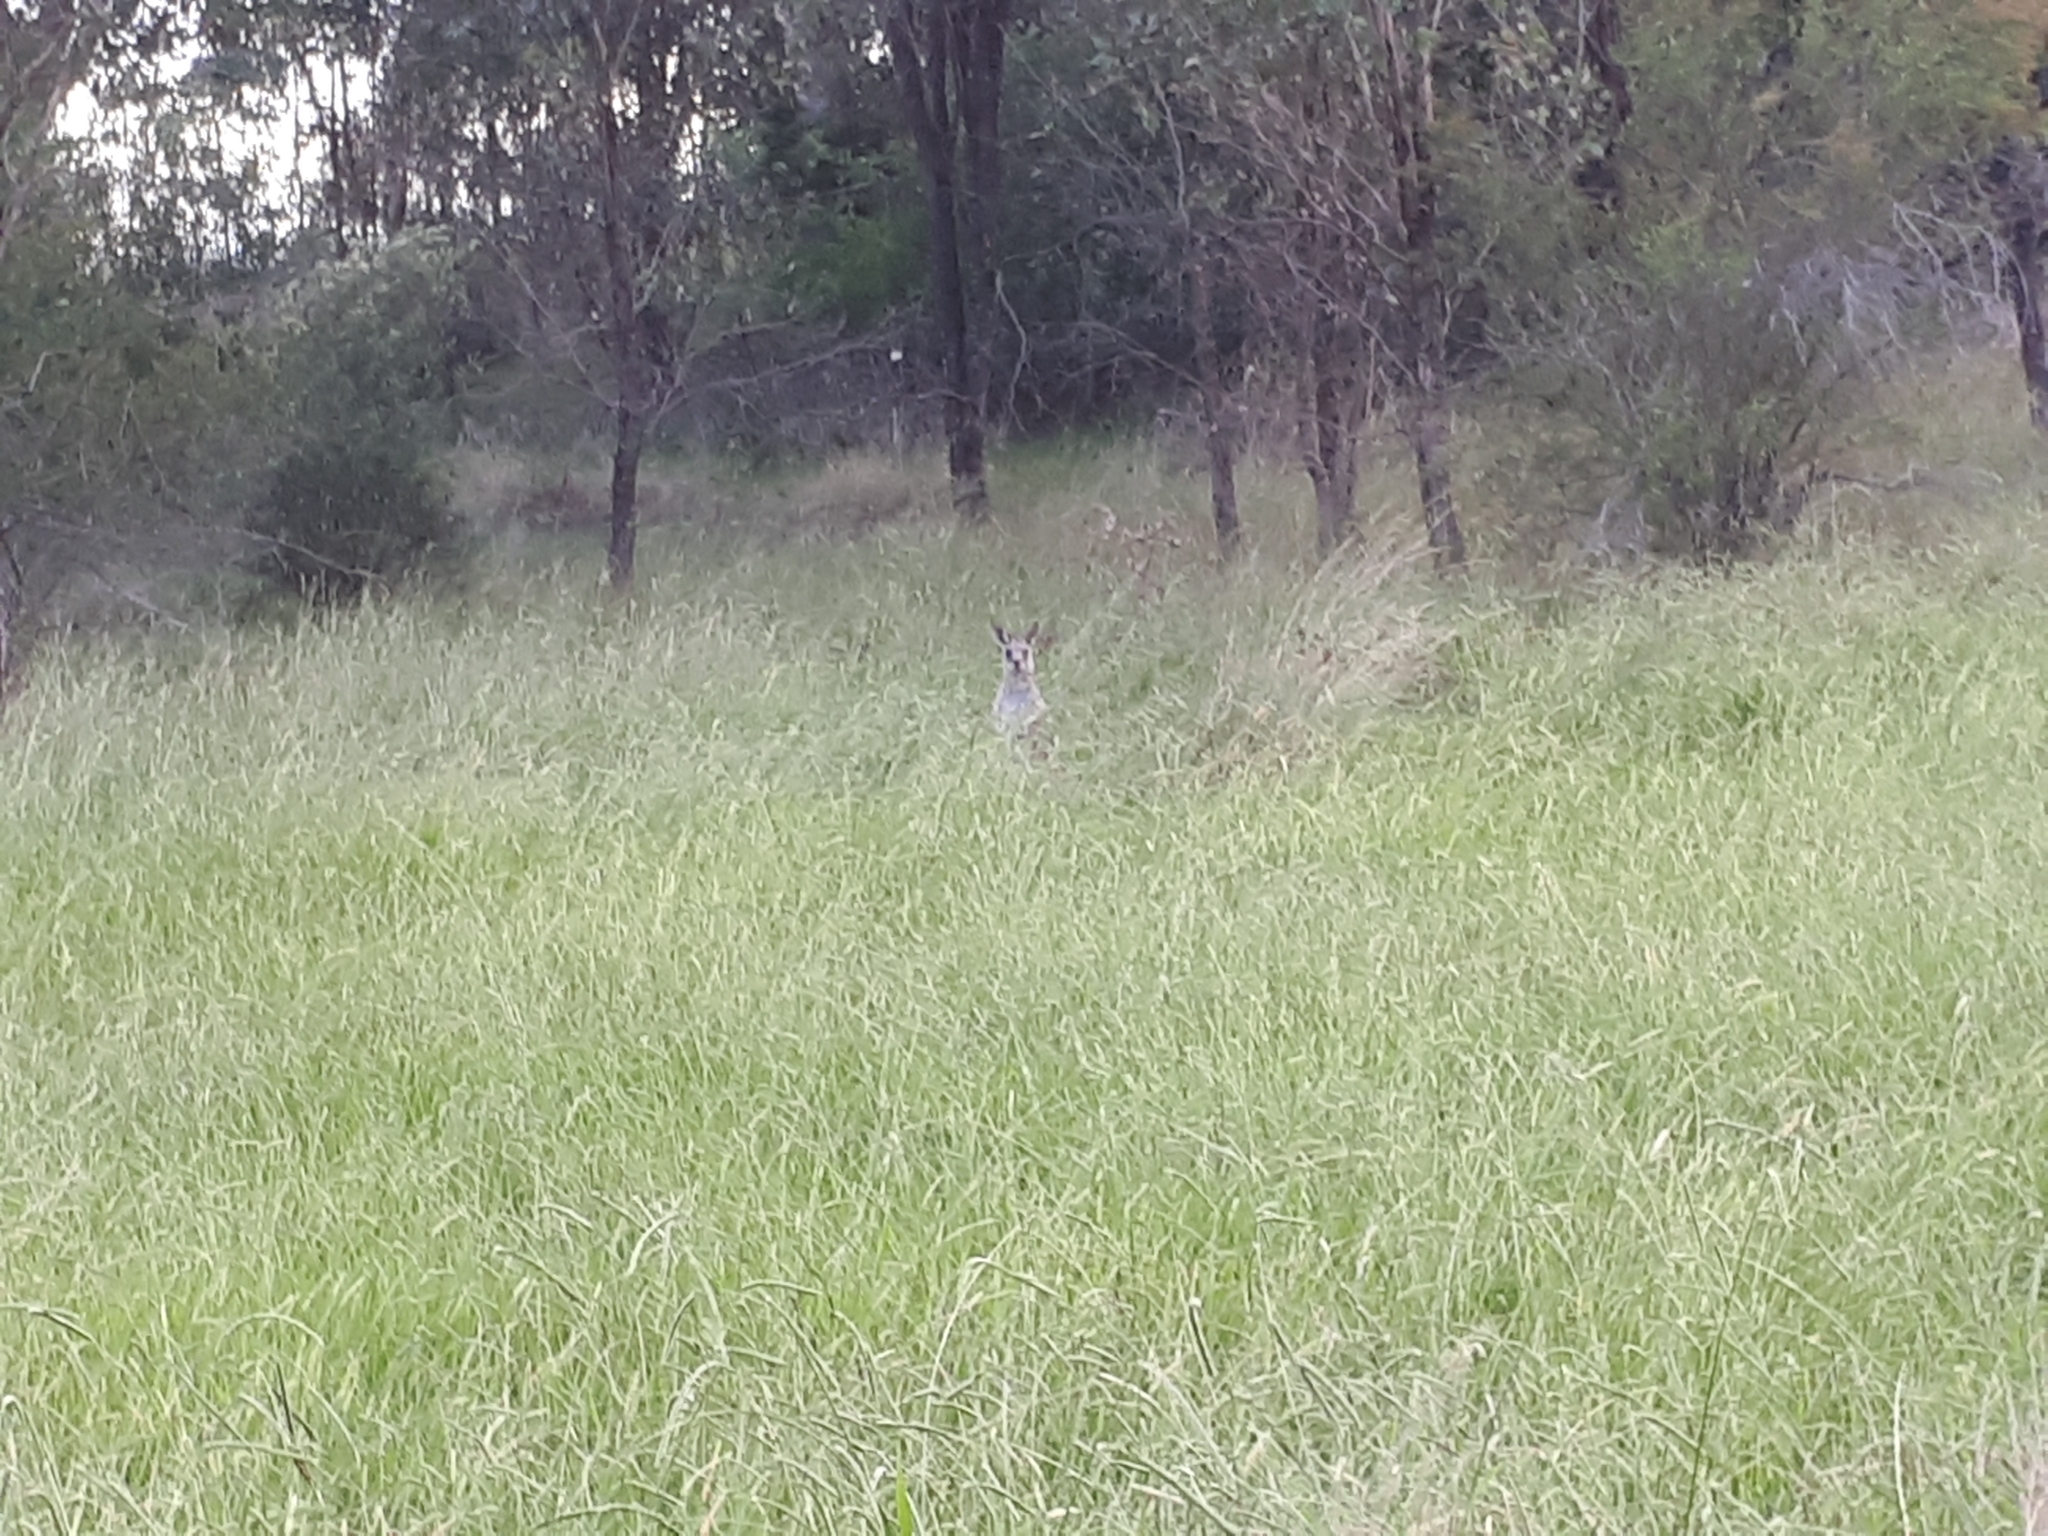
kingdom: Animalia
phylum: Chordata
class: Mammalia
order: Diprotodontia
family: Macropodidae
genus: Macropus
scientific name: Macropus giganteus
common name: Eastern grey kangaroo
